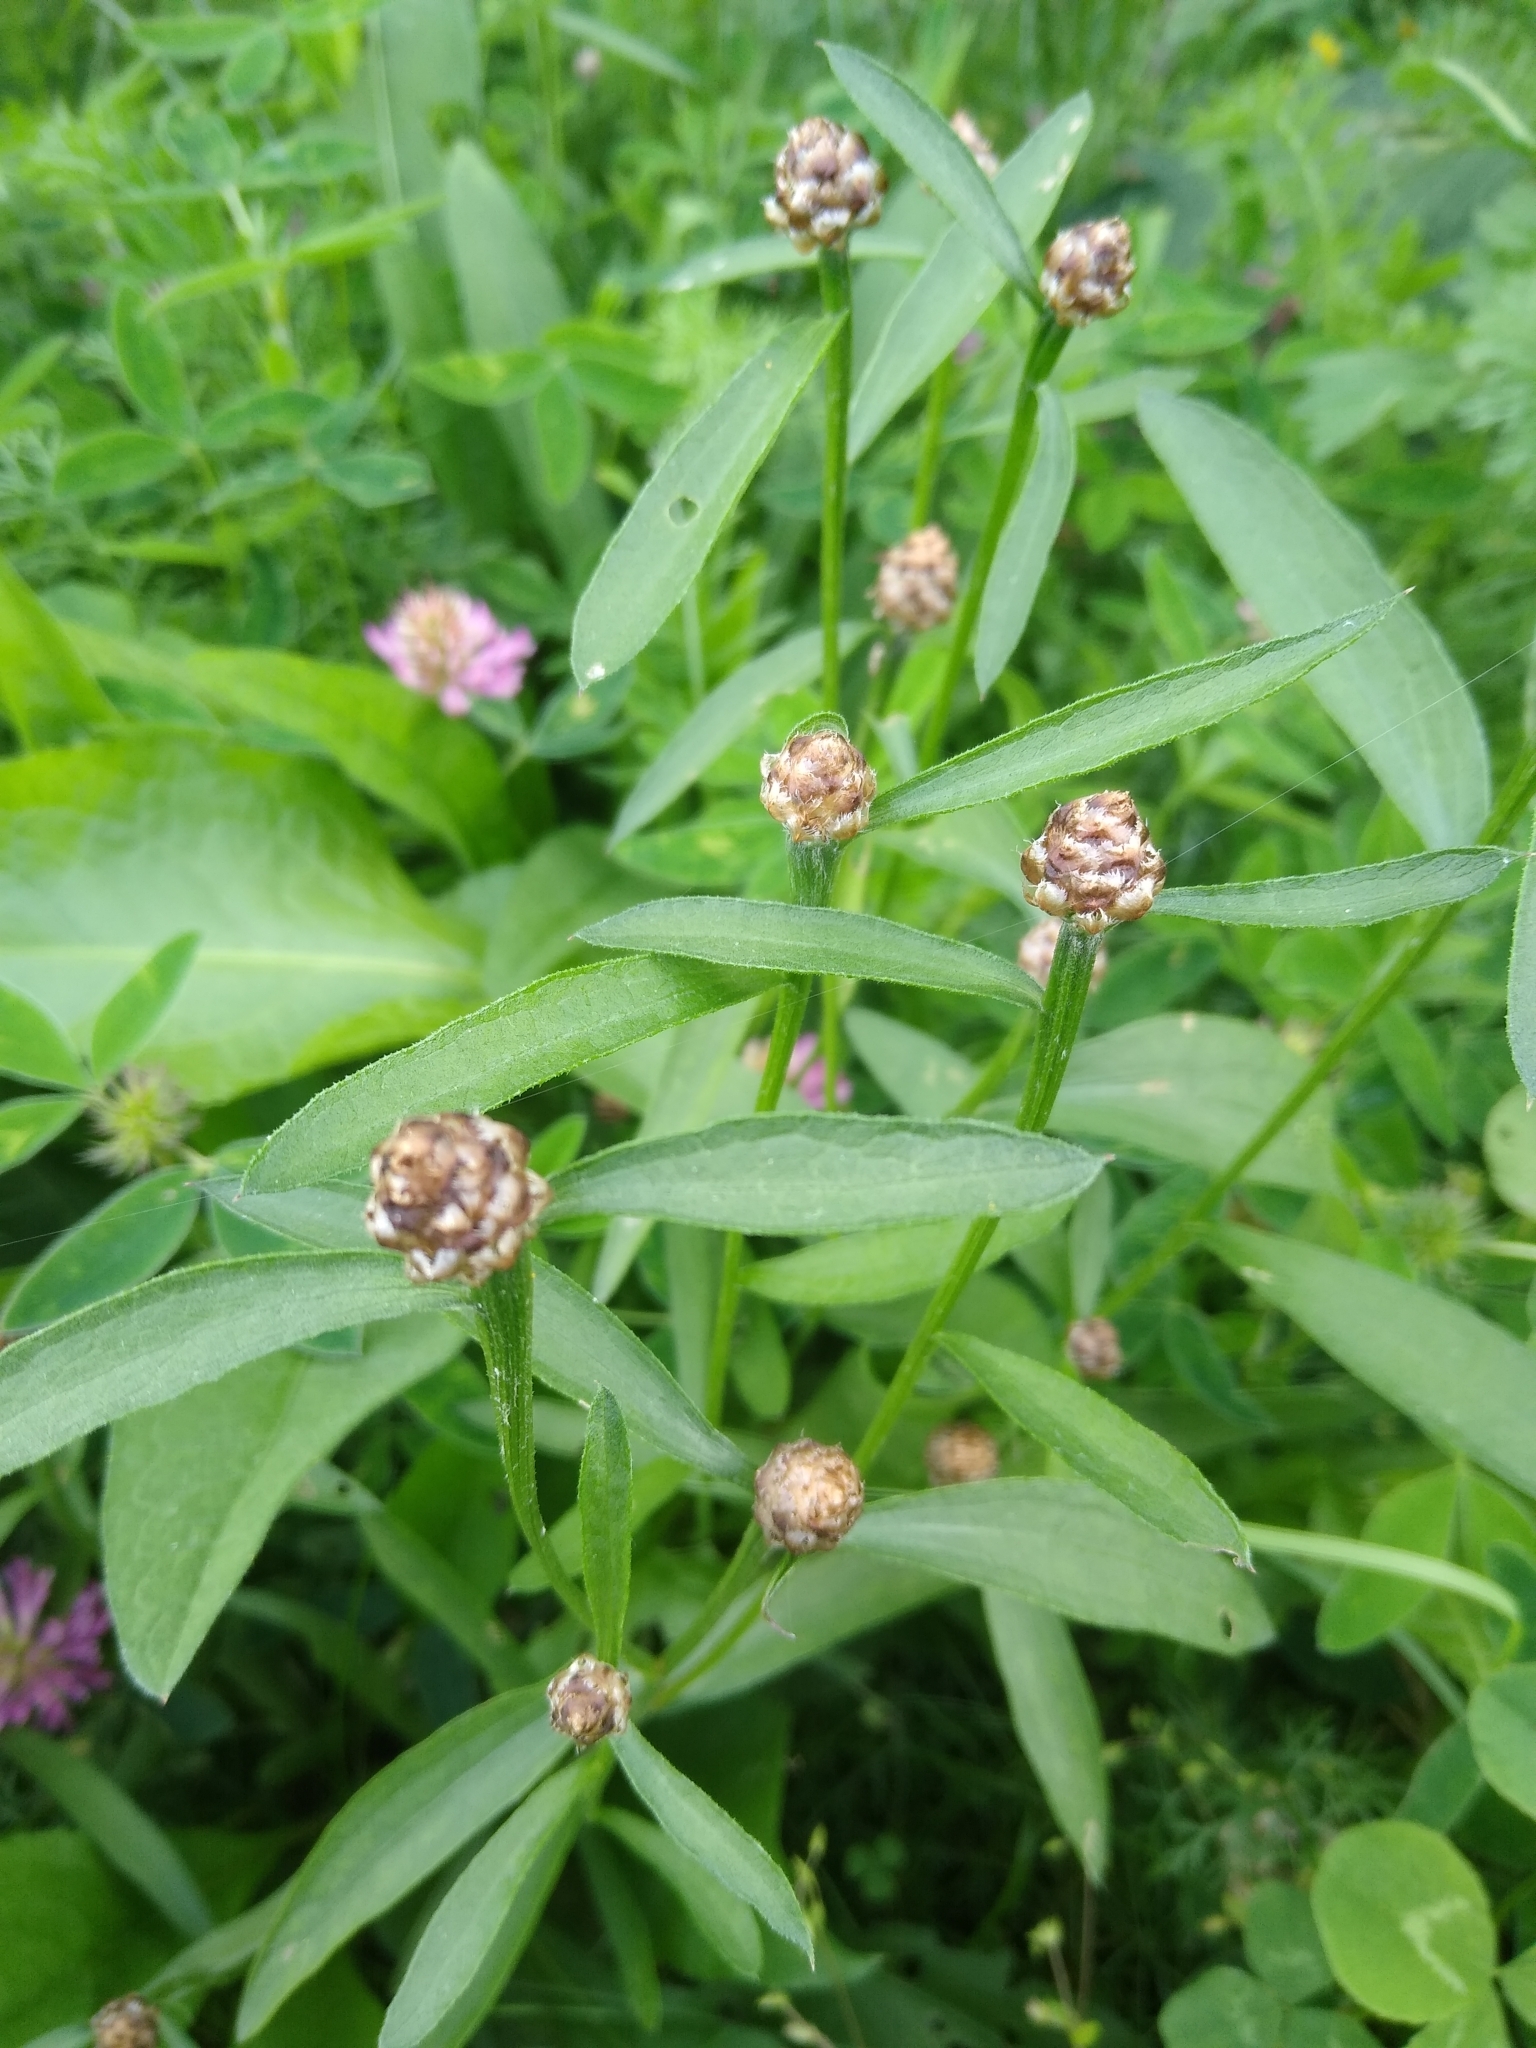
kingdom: Plantae
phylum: Tracheophyta
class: Magnoliopsida
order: Asterales
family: Asteraceae
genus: Centaurea
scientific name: Centaurea jacea
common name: Brown knapweed
